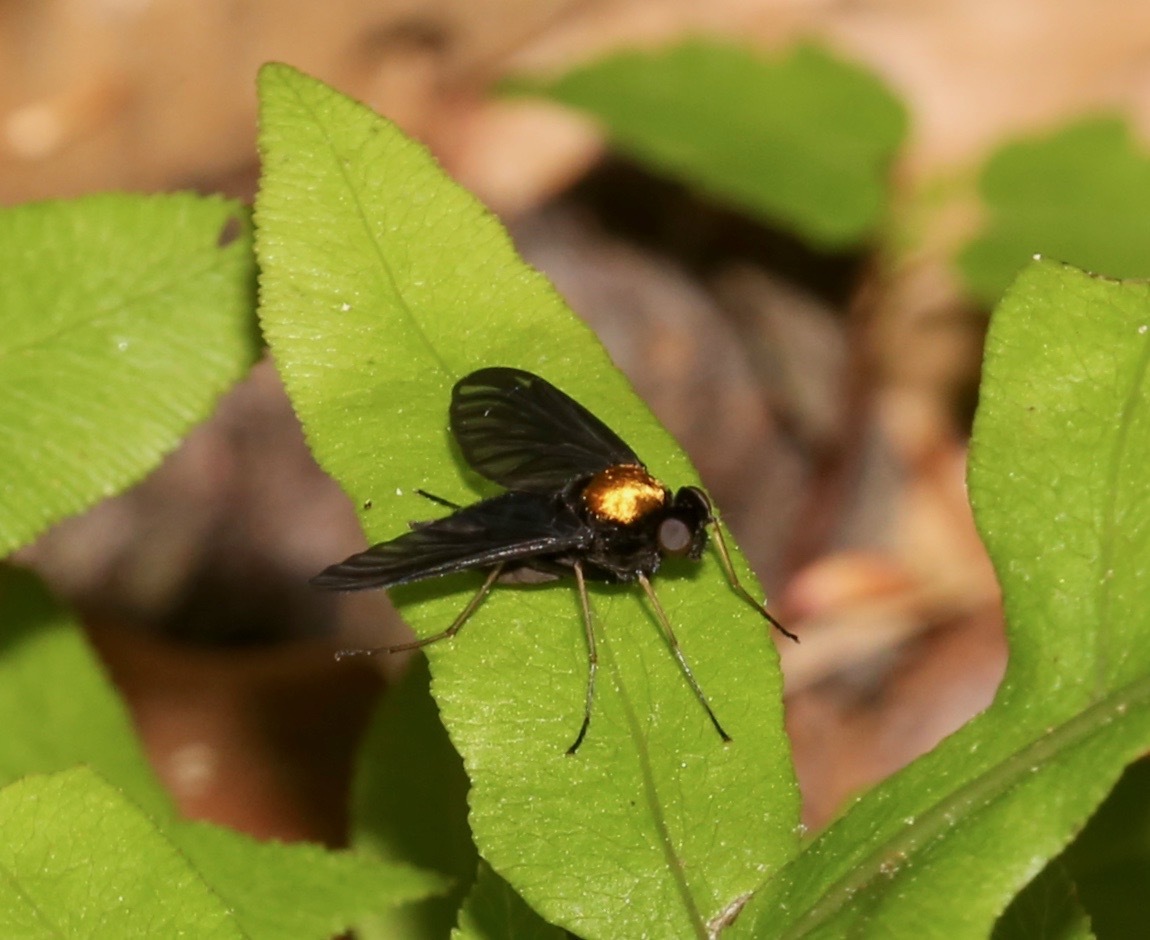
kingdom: Animalia
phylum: Arthropoda
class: Insecta
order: Diptera
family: Rhagionidae
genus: Chrysopilus
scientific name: Chrysopilus thoracicus
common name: Golden-backed snipe fly
